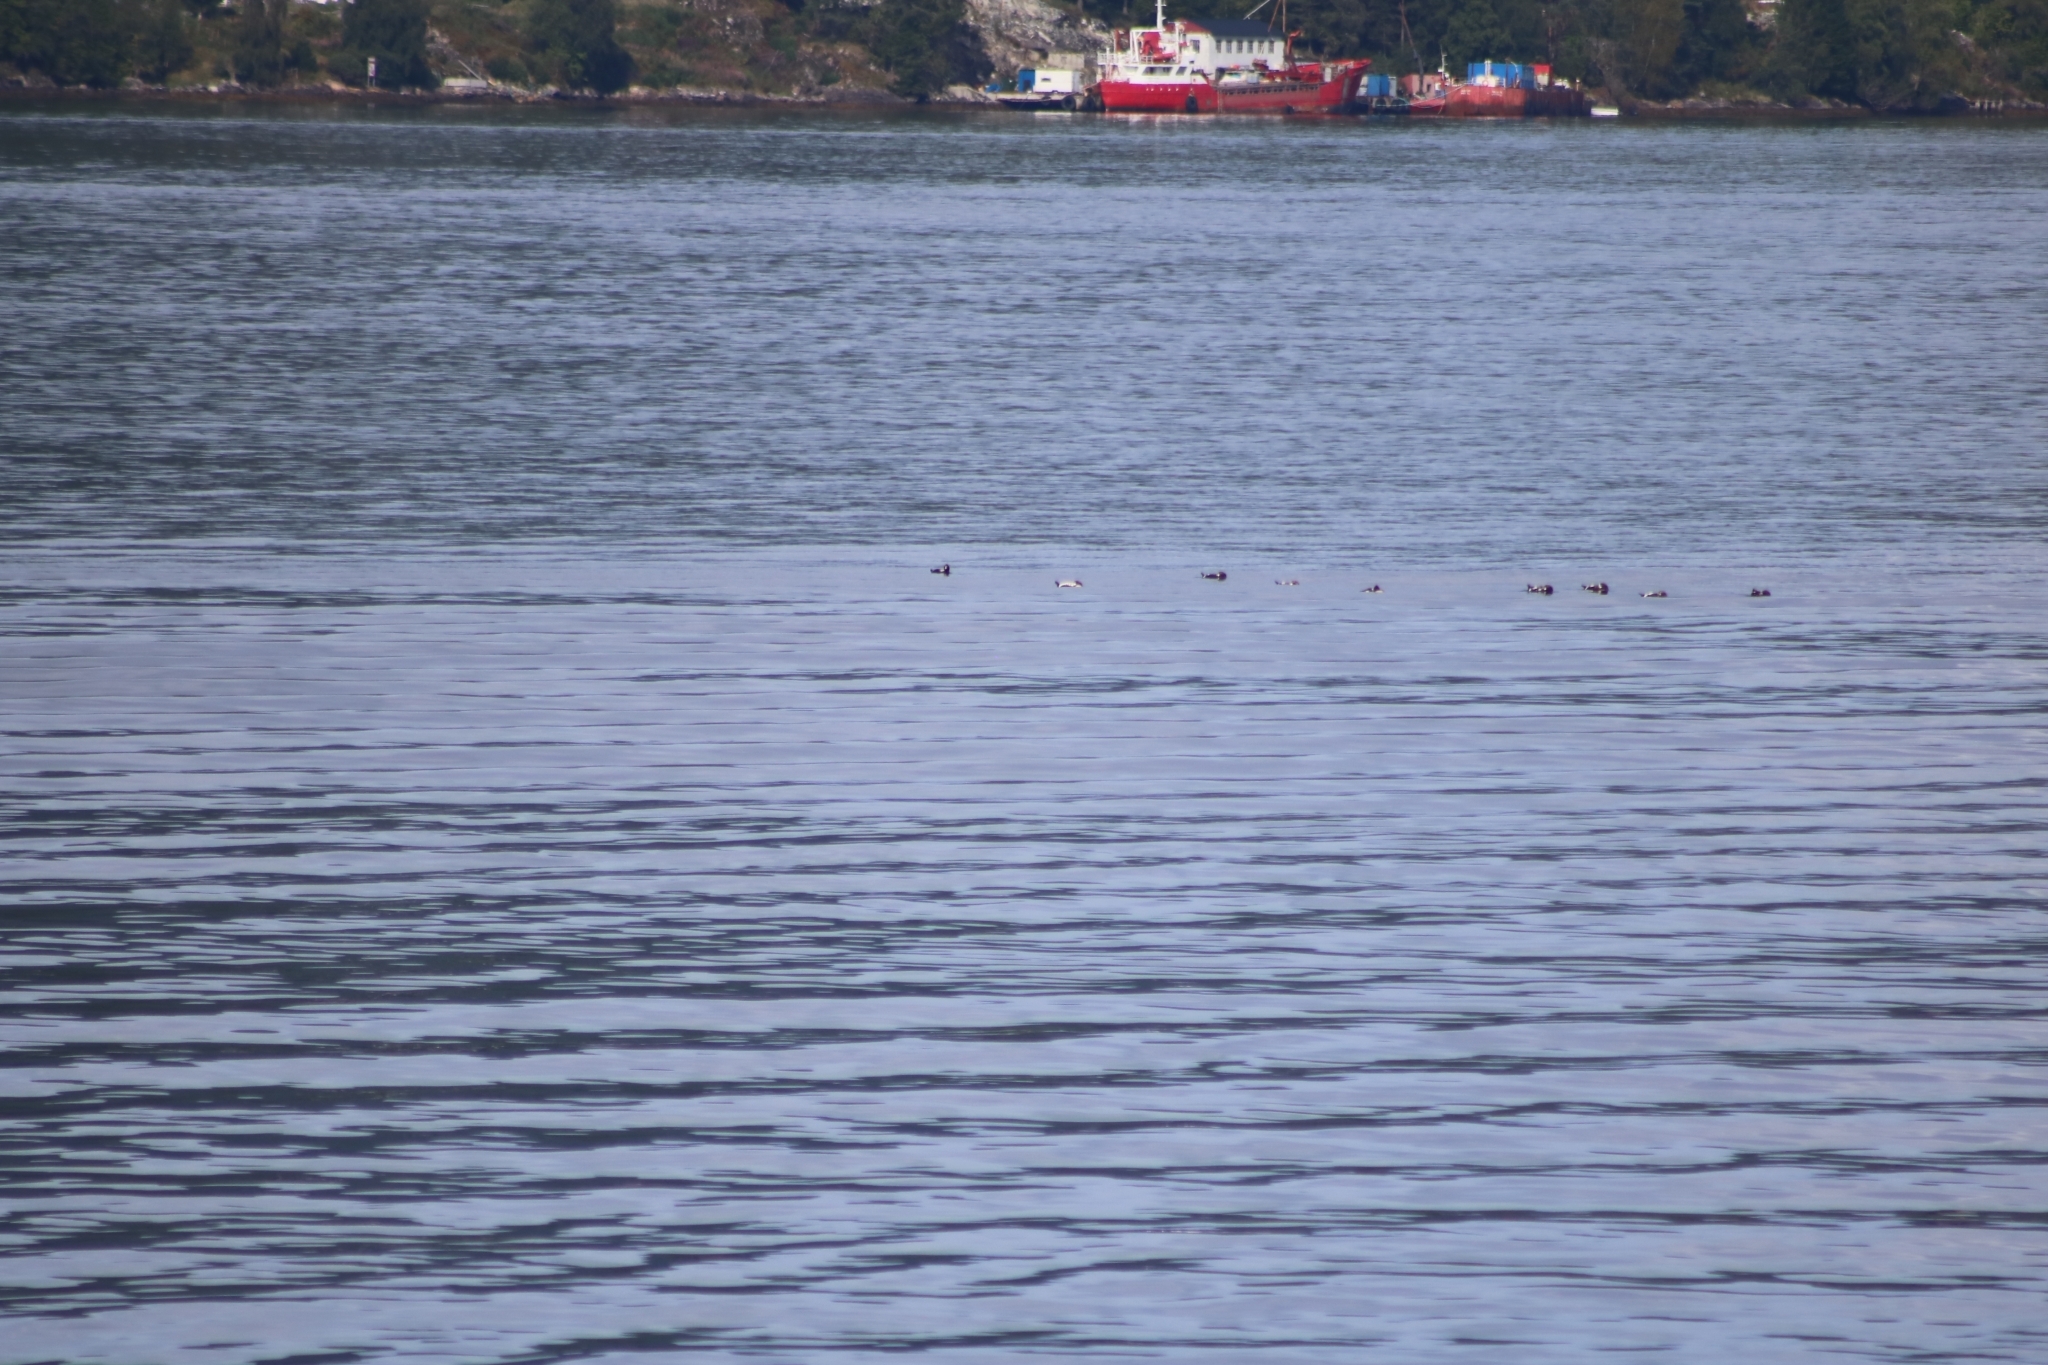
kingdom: Animalia
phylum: Chordata
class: Aves
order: Anseriformes
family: Anatidae
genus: Somateria
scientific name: Somateria mollissima
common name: Common eider
